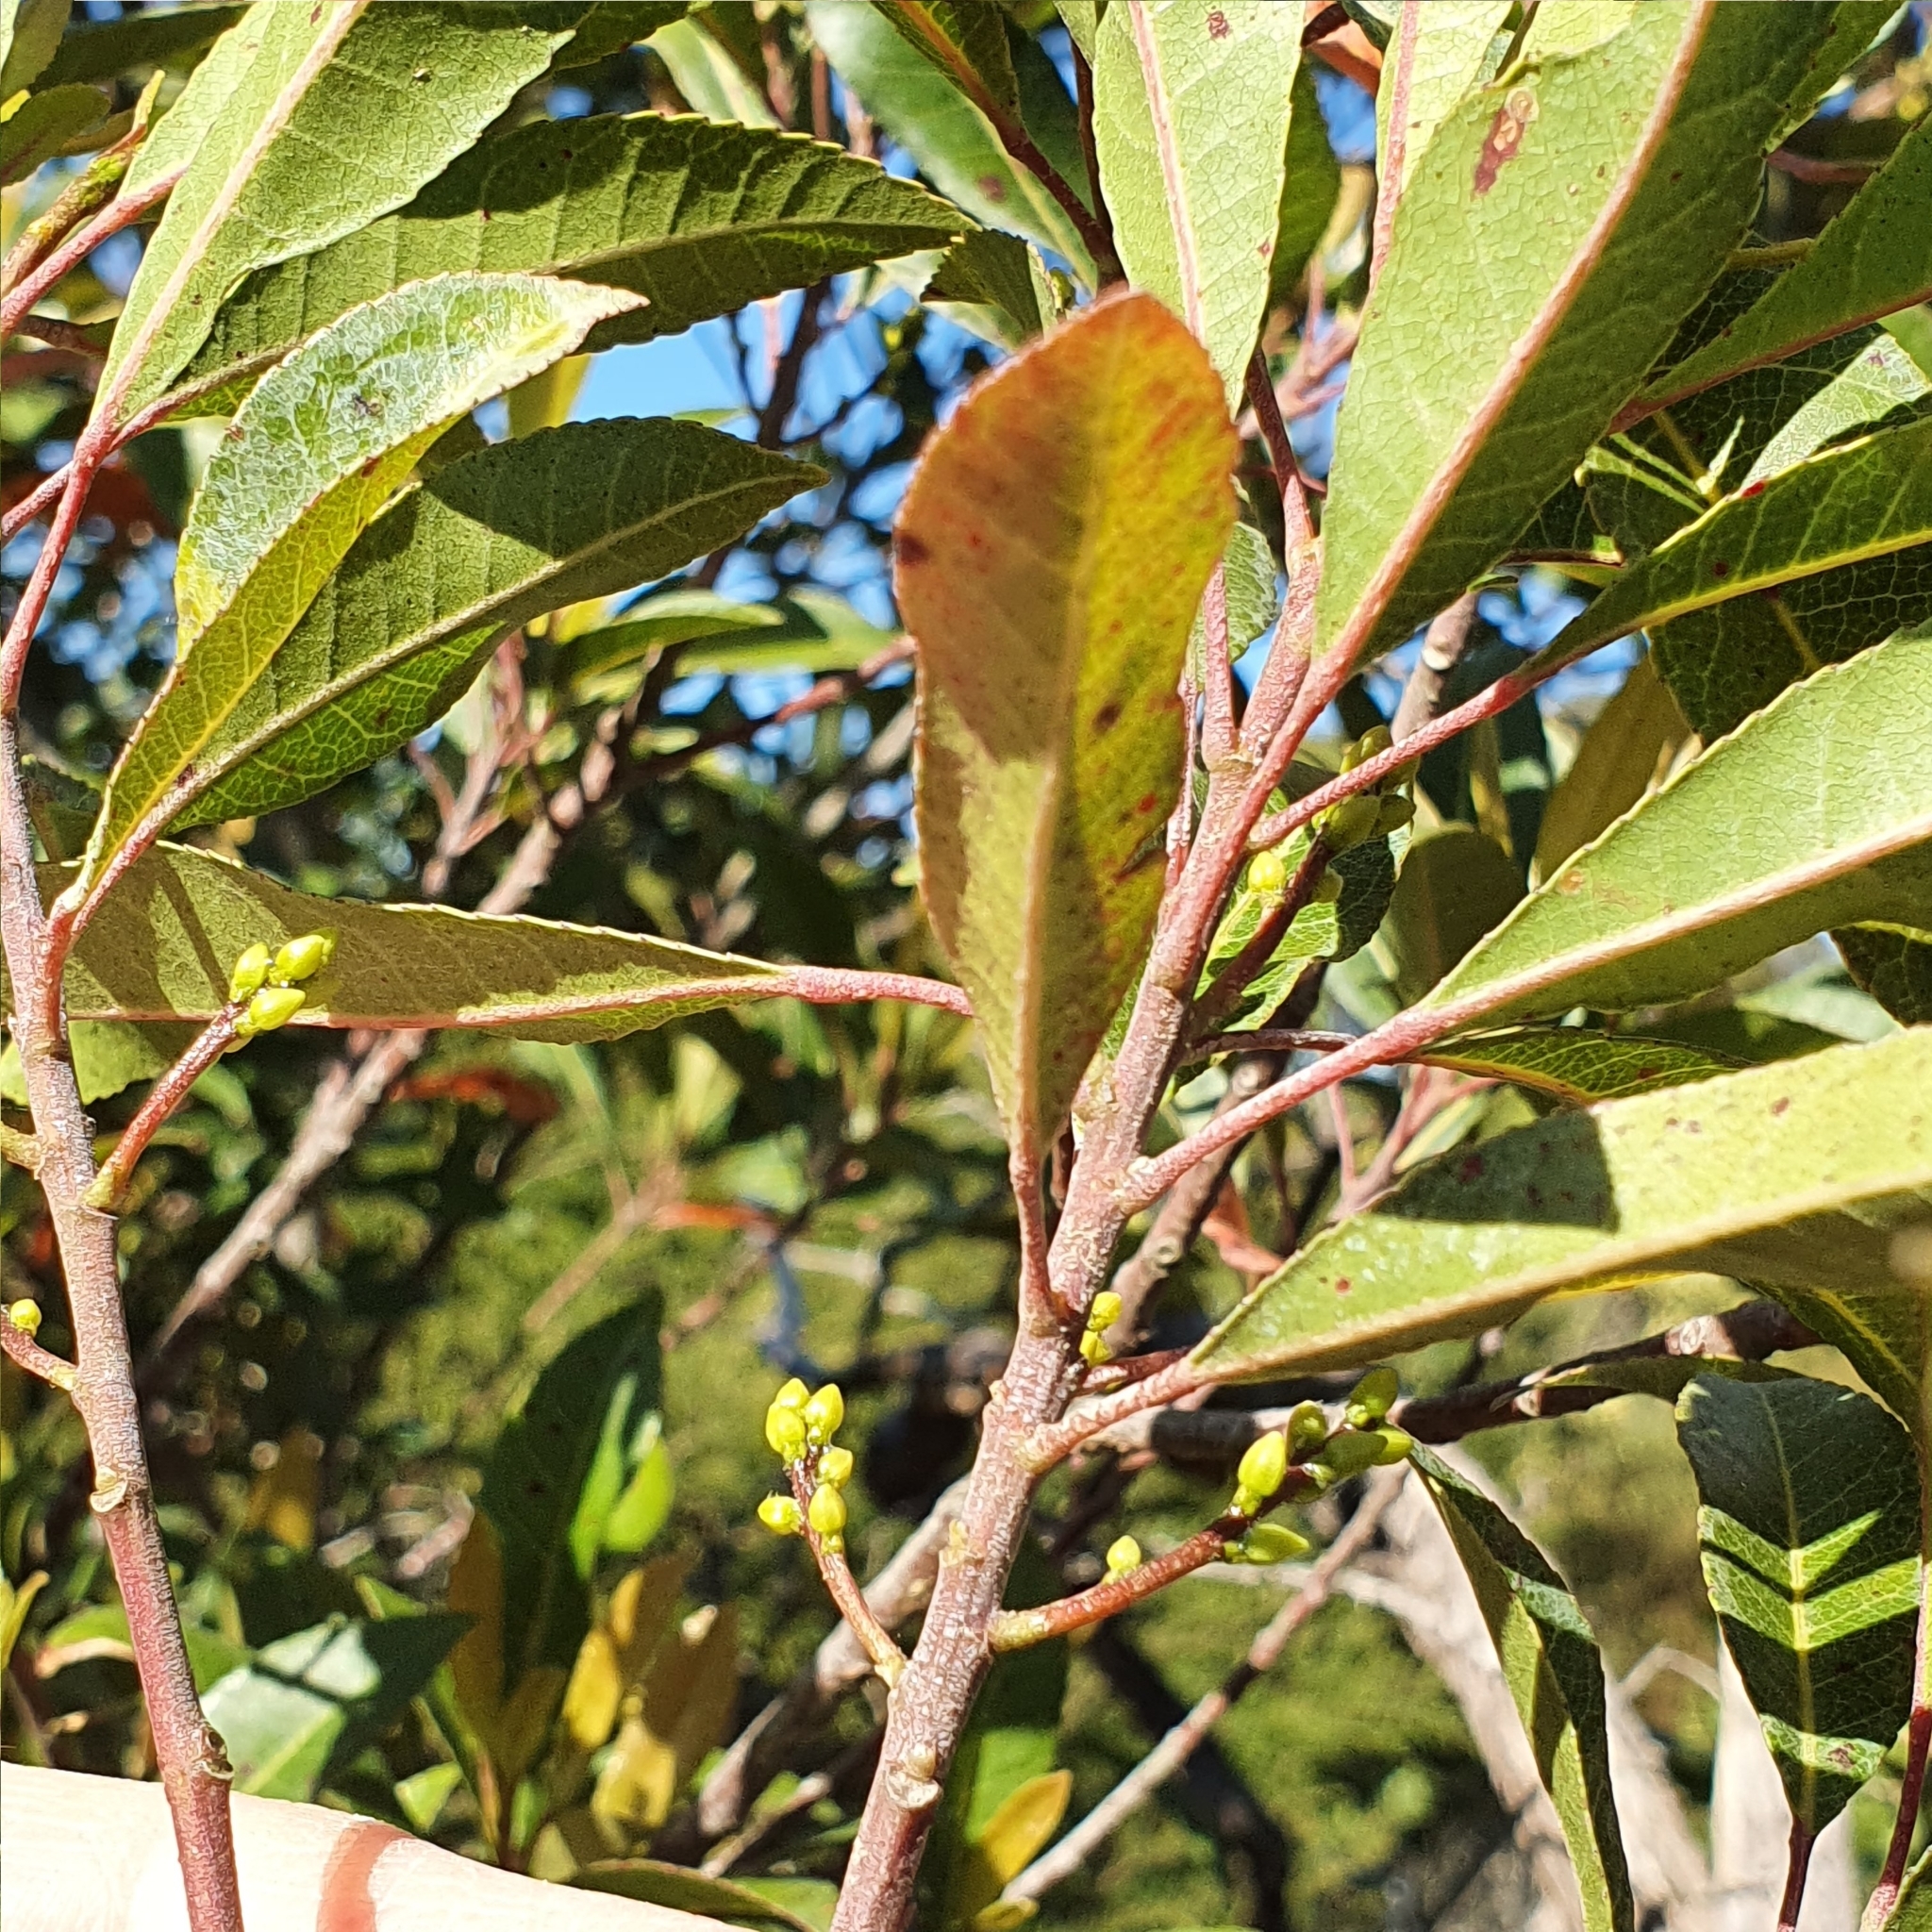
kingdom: Plantae
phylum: Tracheophyta
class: Magnoliopsida
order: Oxalidales
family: Elaeocarpaceae
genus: Elaeocarpus
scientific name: Elaeocarpus reticulatus
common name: Ash quandong
